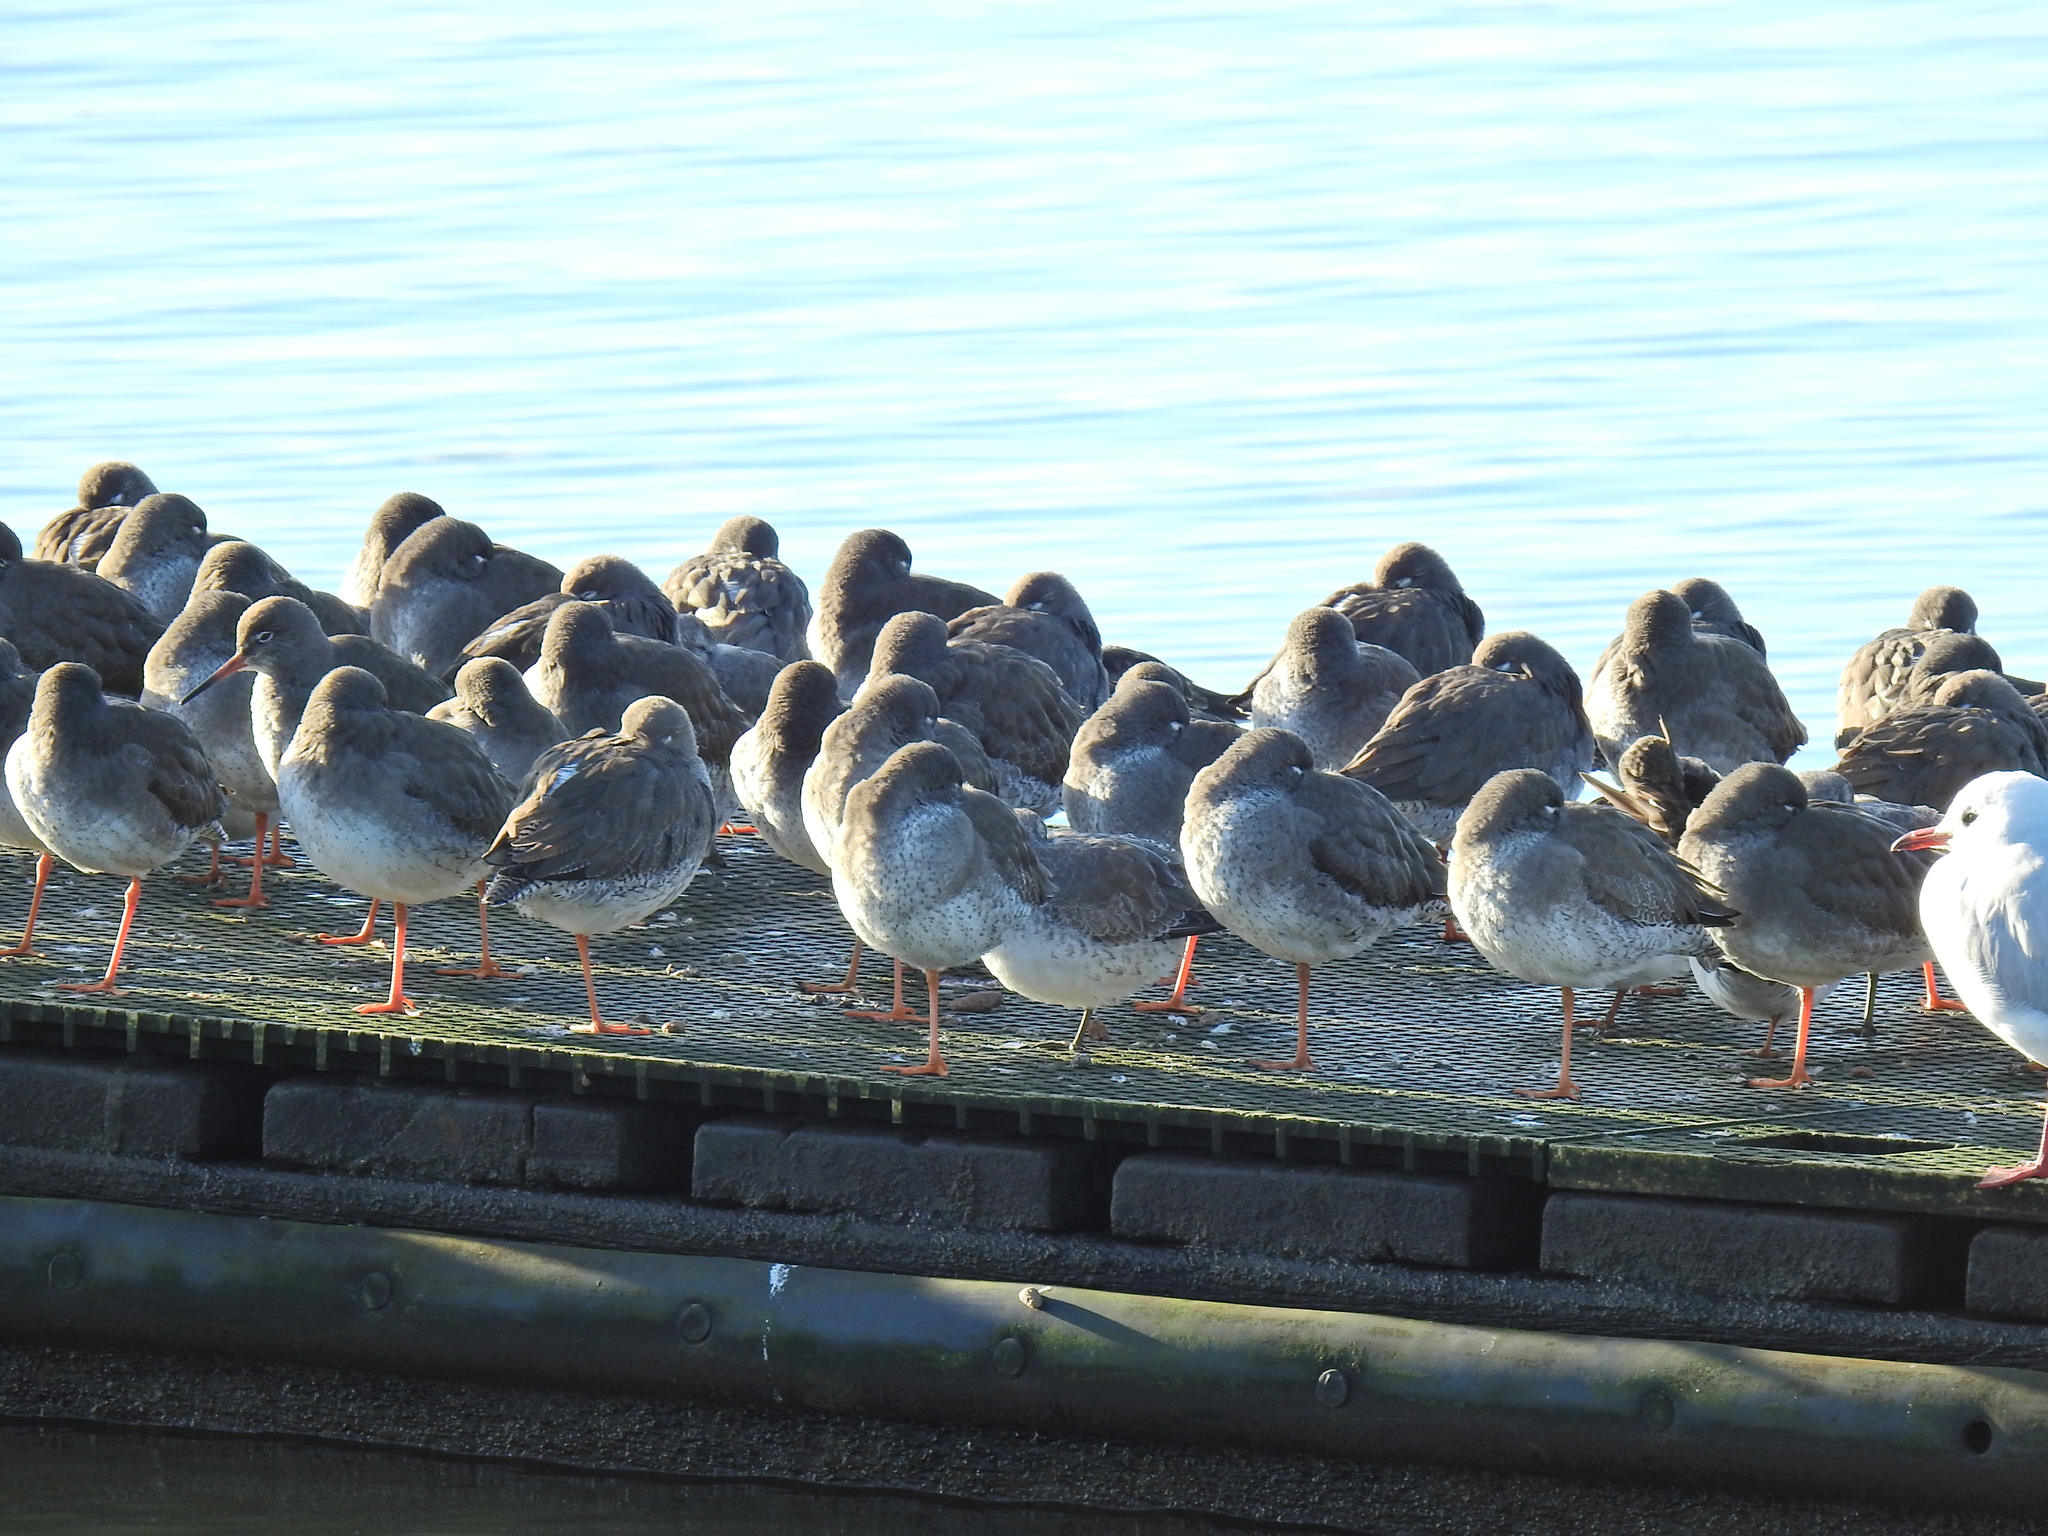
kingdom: Animalia
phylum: Chordata
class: Aves
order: Charadriiformes
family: Scolopacidae
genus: Tringa
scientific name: Tringa totanus
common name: Common redshank
